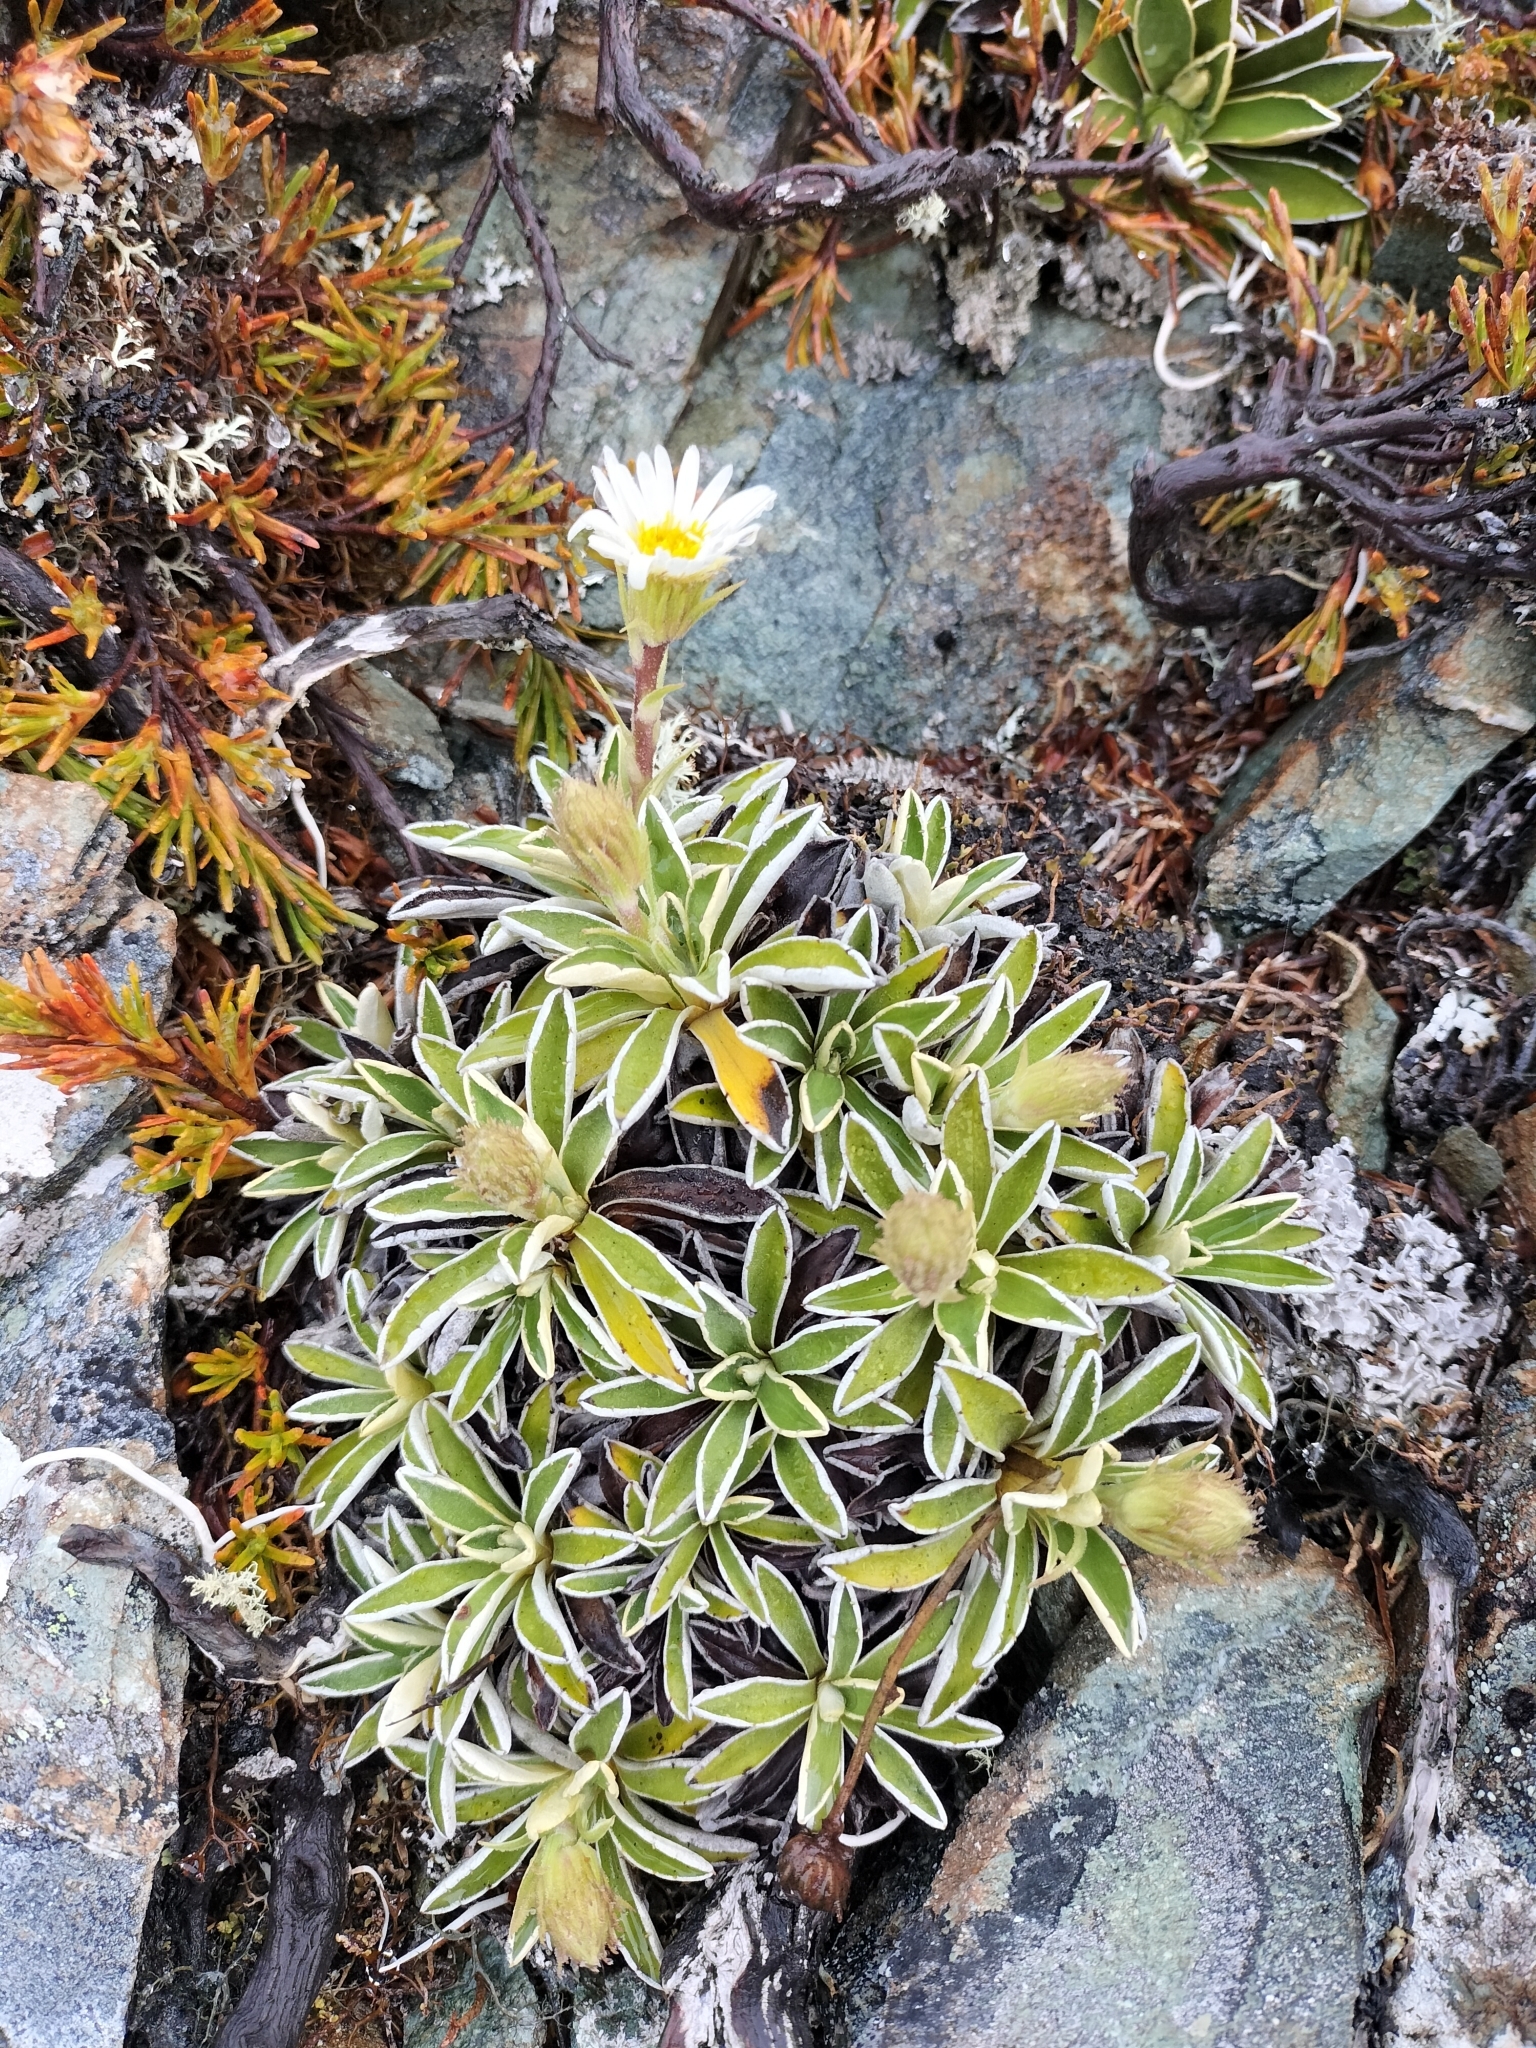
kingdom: Plantae
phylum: Tracheophyta
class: Magnoliopsida
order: Asterales
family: Asteraceae
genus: Celmisia
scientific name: Celmisia hieraciifolia
